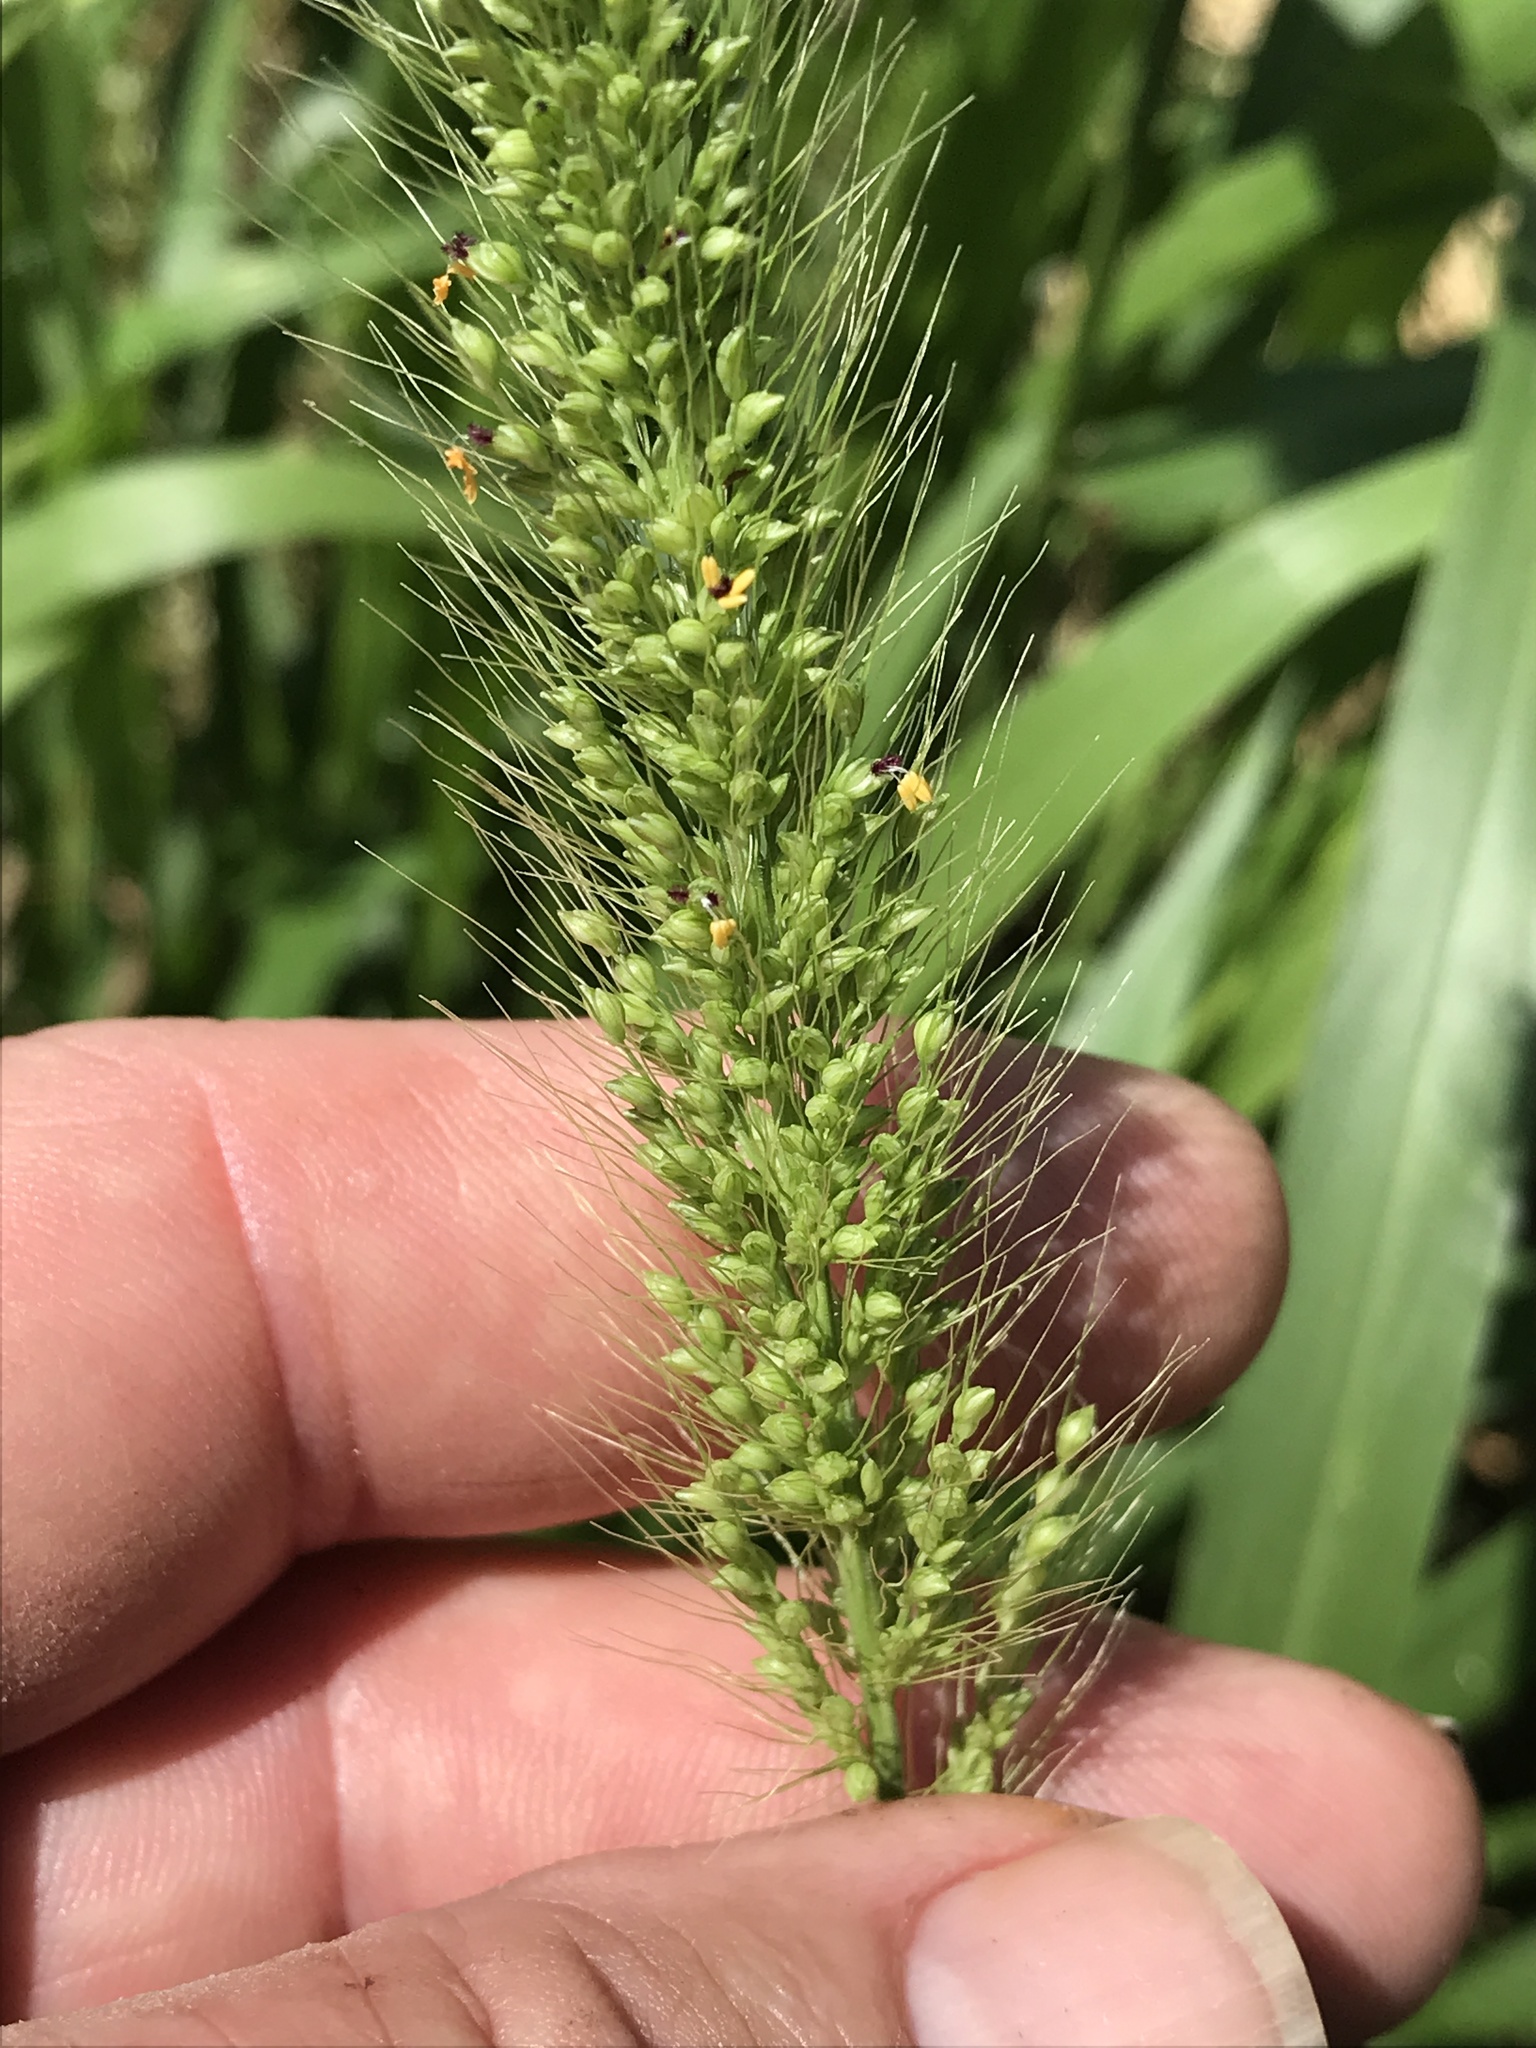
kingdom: Plantae
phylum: Tracheophyta
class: Liliopsida
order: Poales
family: Poaceae
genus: Setaria
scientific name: Setaria scheelei
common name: Southwestern bristle grass
